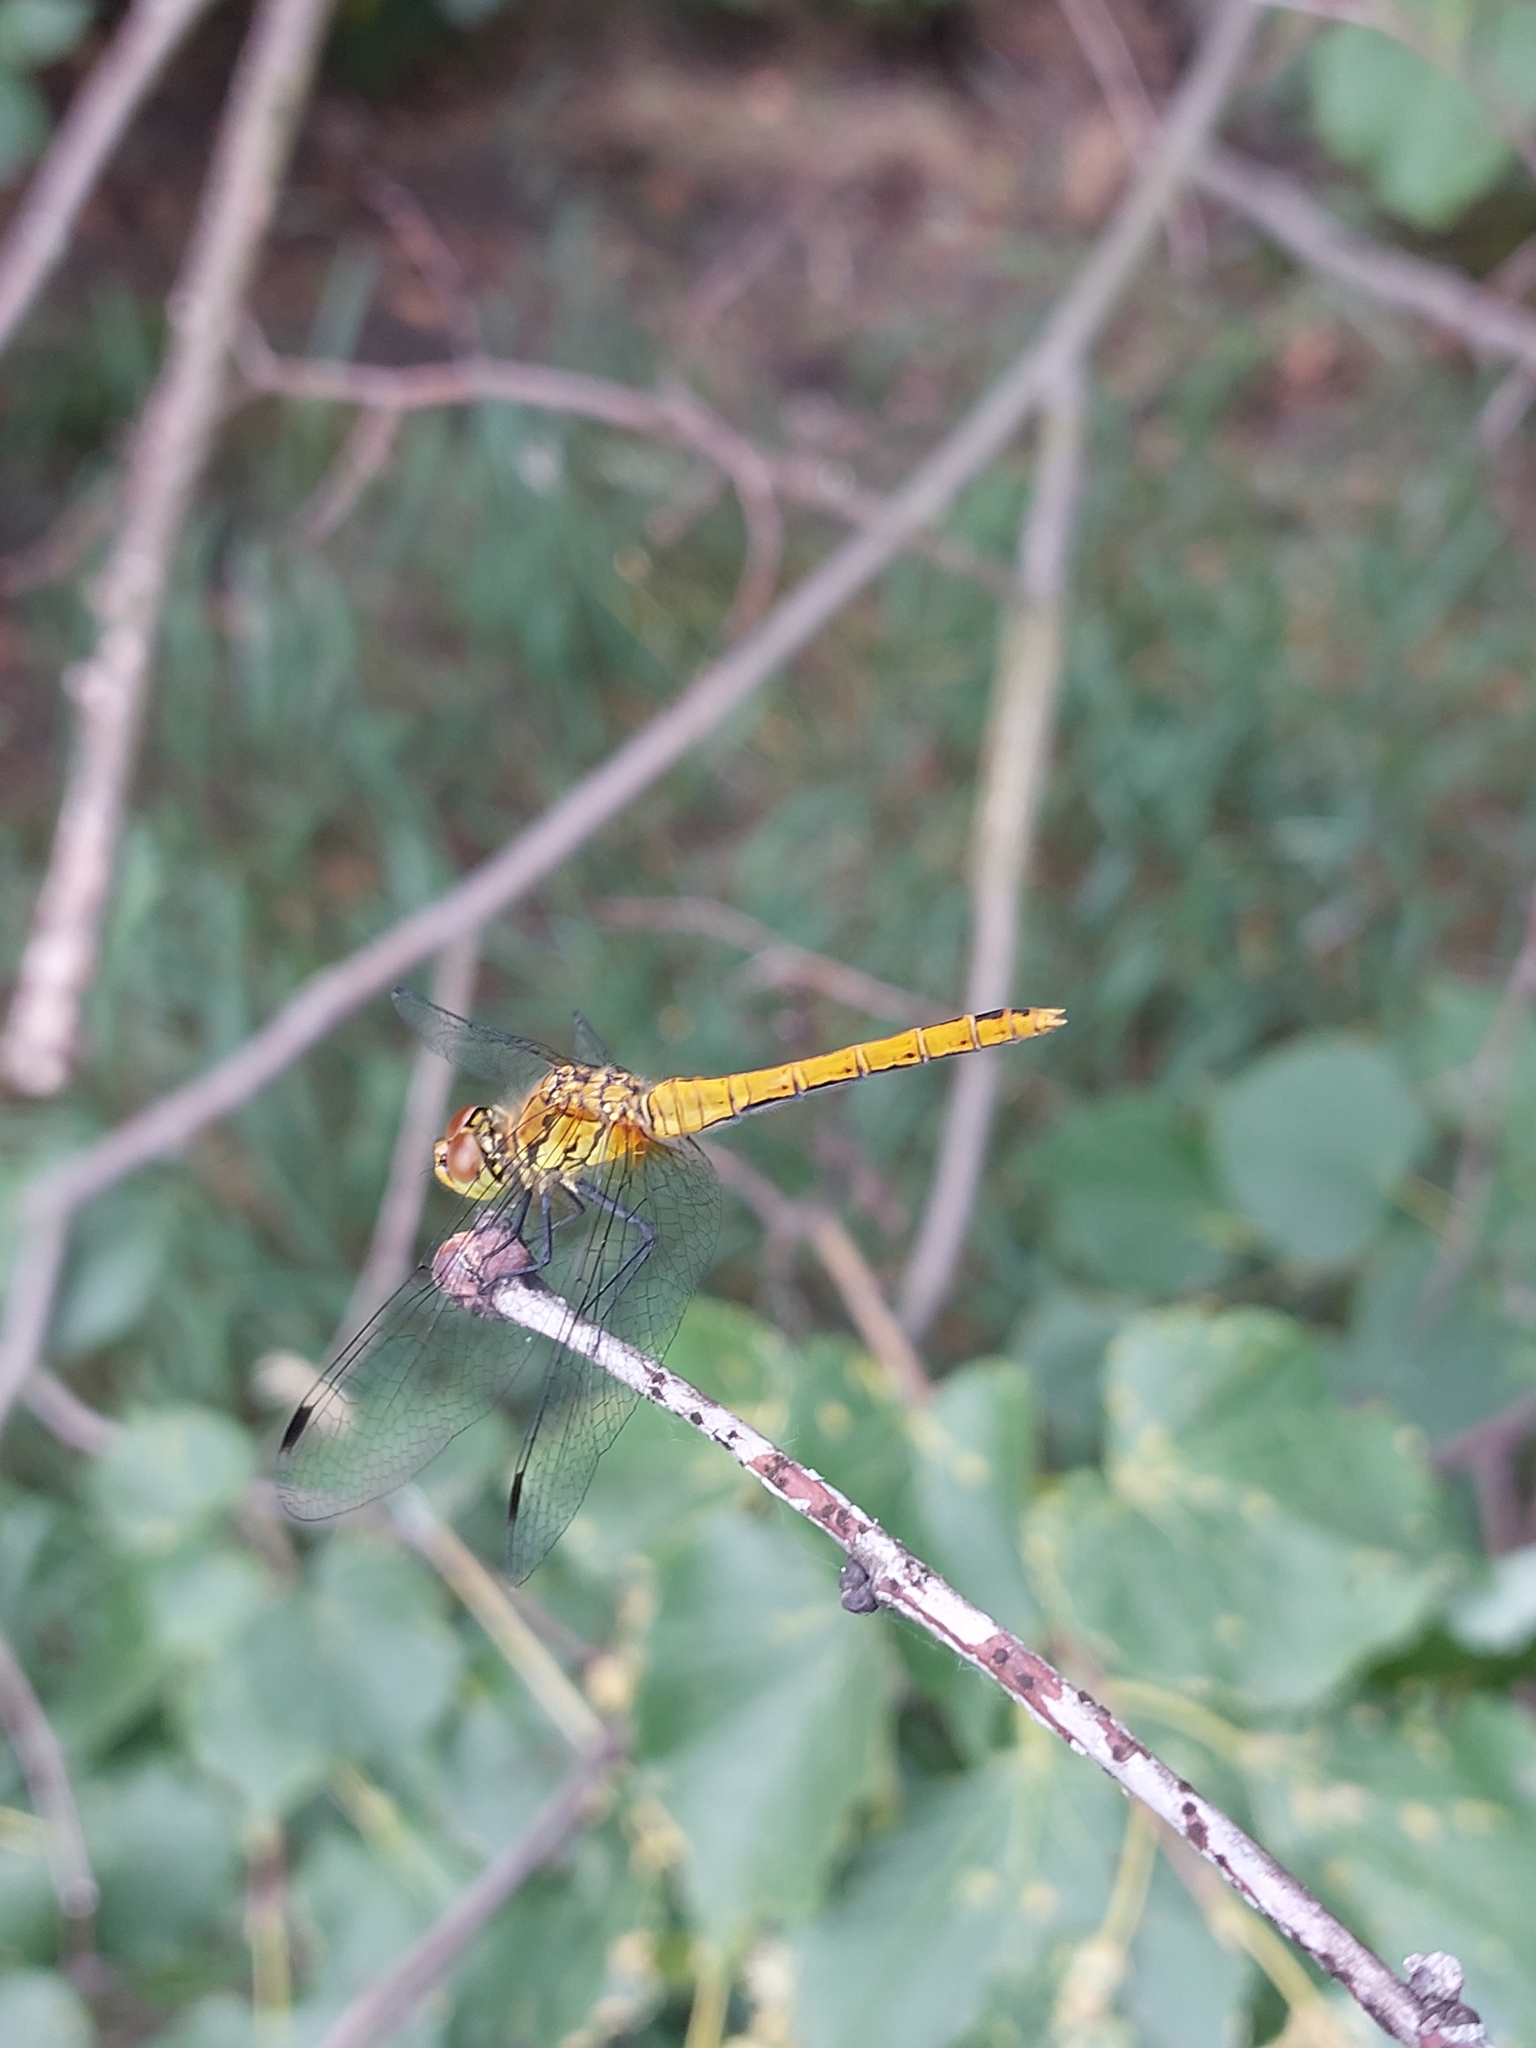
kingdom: Animalia
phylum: Arthropoda
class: Insecta
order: Odonata
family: Libellulidae
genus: Sympetrum
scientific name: Sympetrum sanguineum
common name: Ruddy darter
